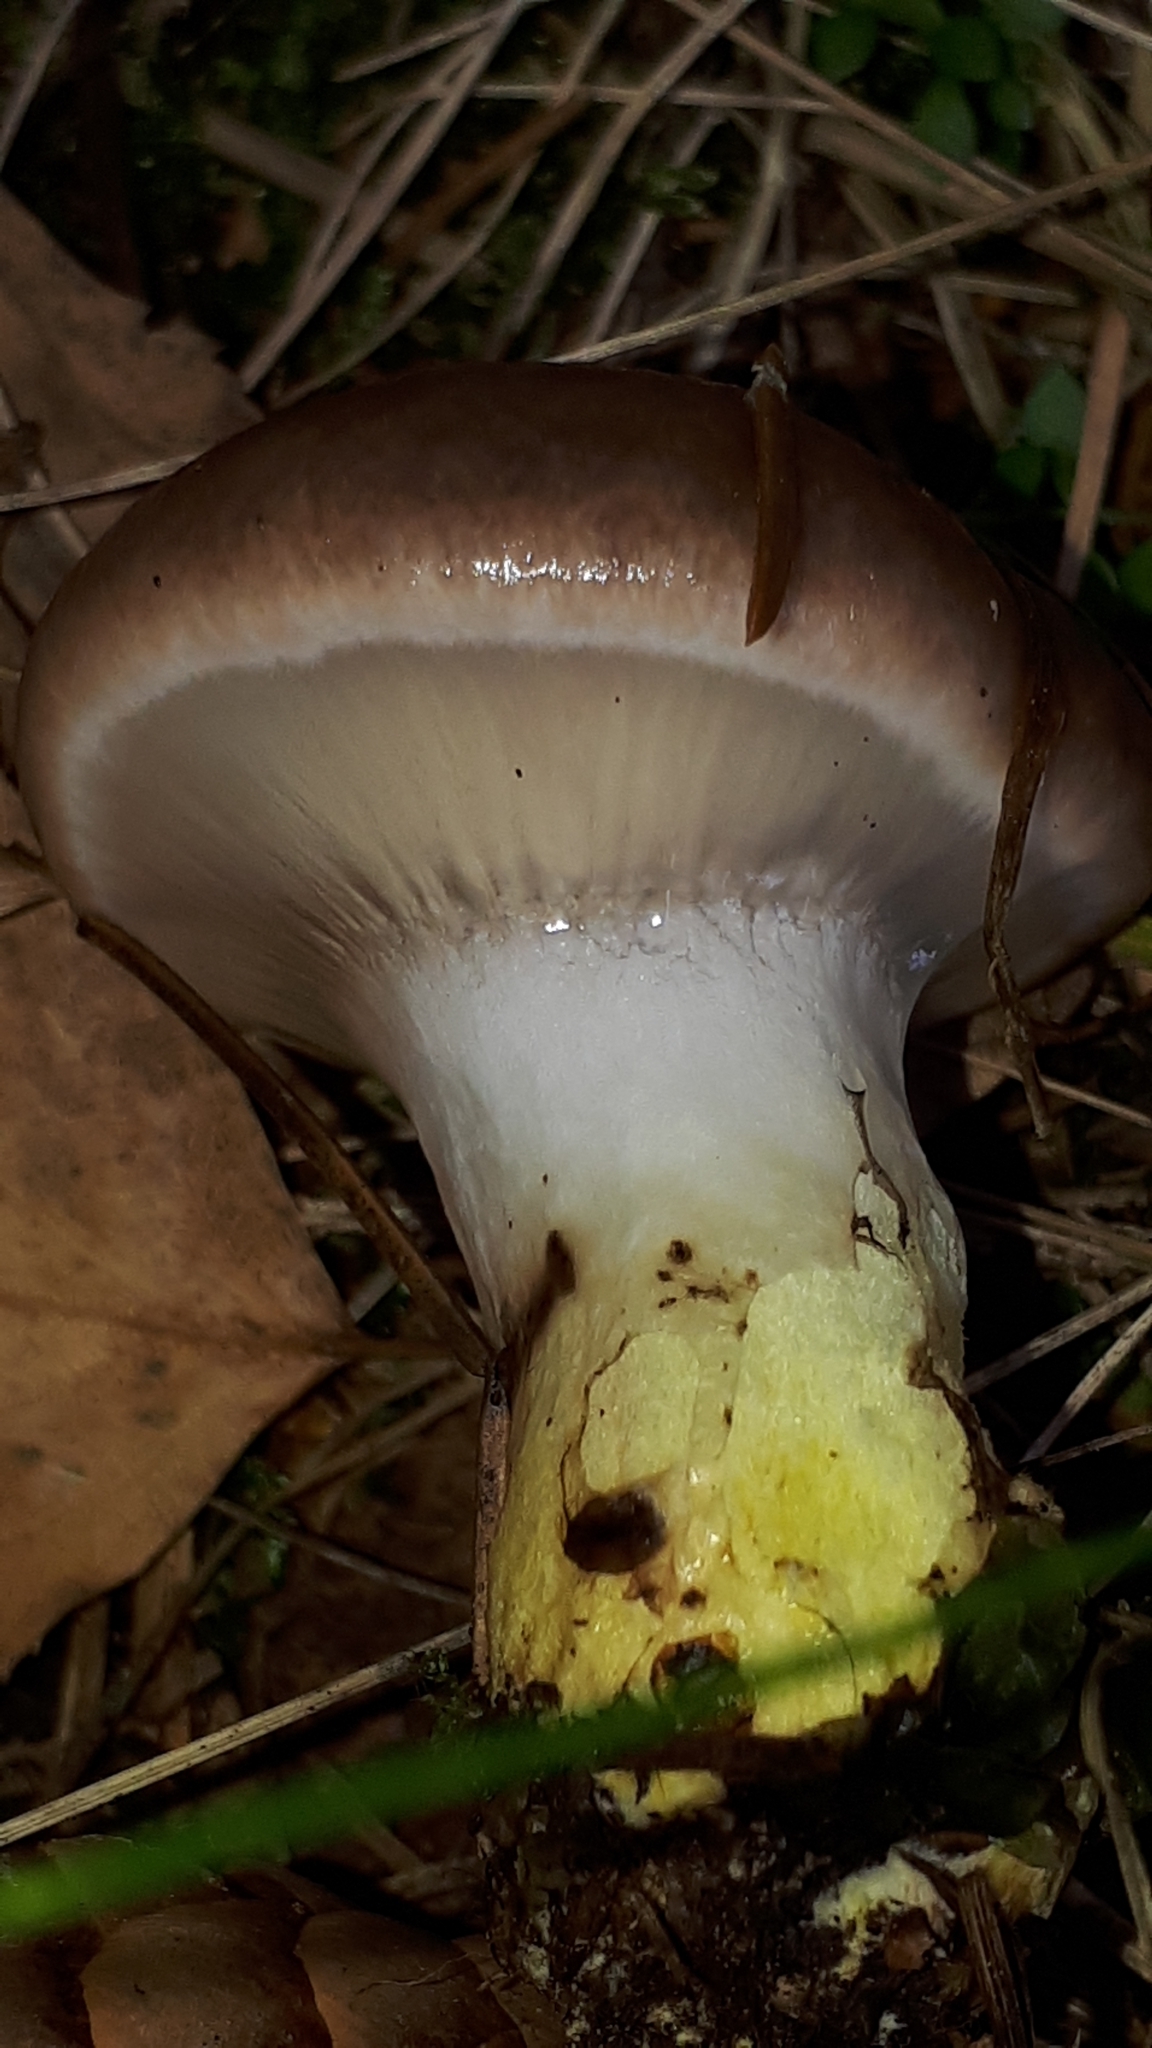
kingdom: Fungi
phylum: Basidiomycota
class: Agaricomycetes
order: Boletales
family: Gomphidiaceae
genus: Gomphidius
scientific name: Gomphidius glutinosus
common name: Slimy spike
